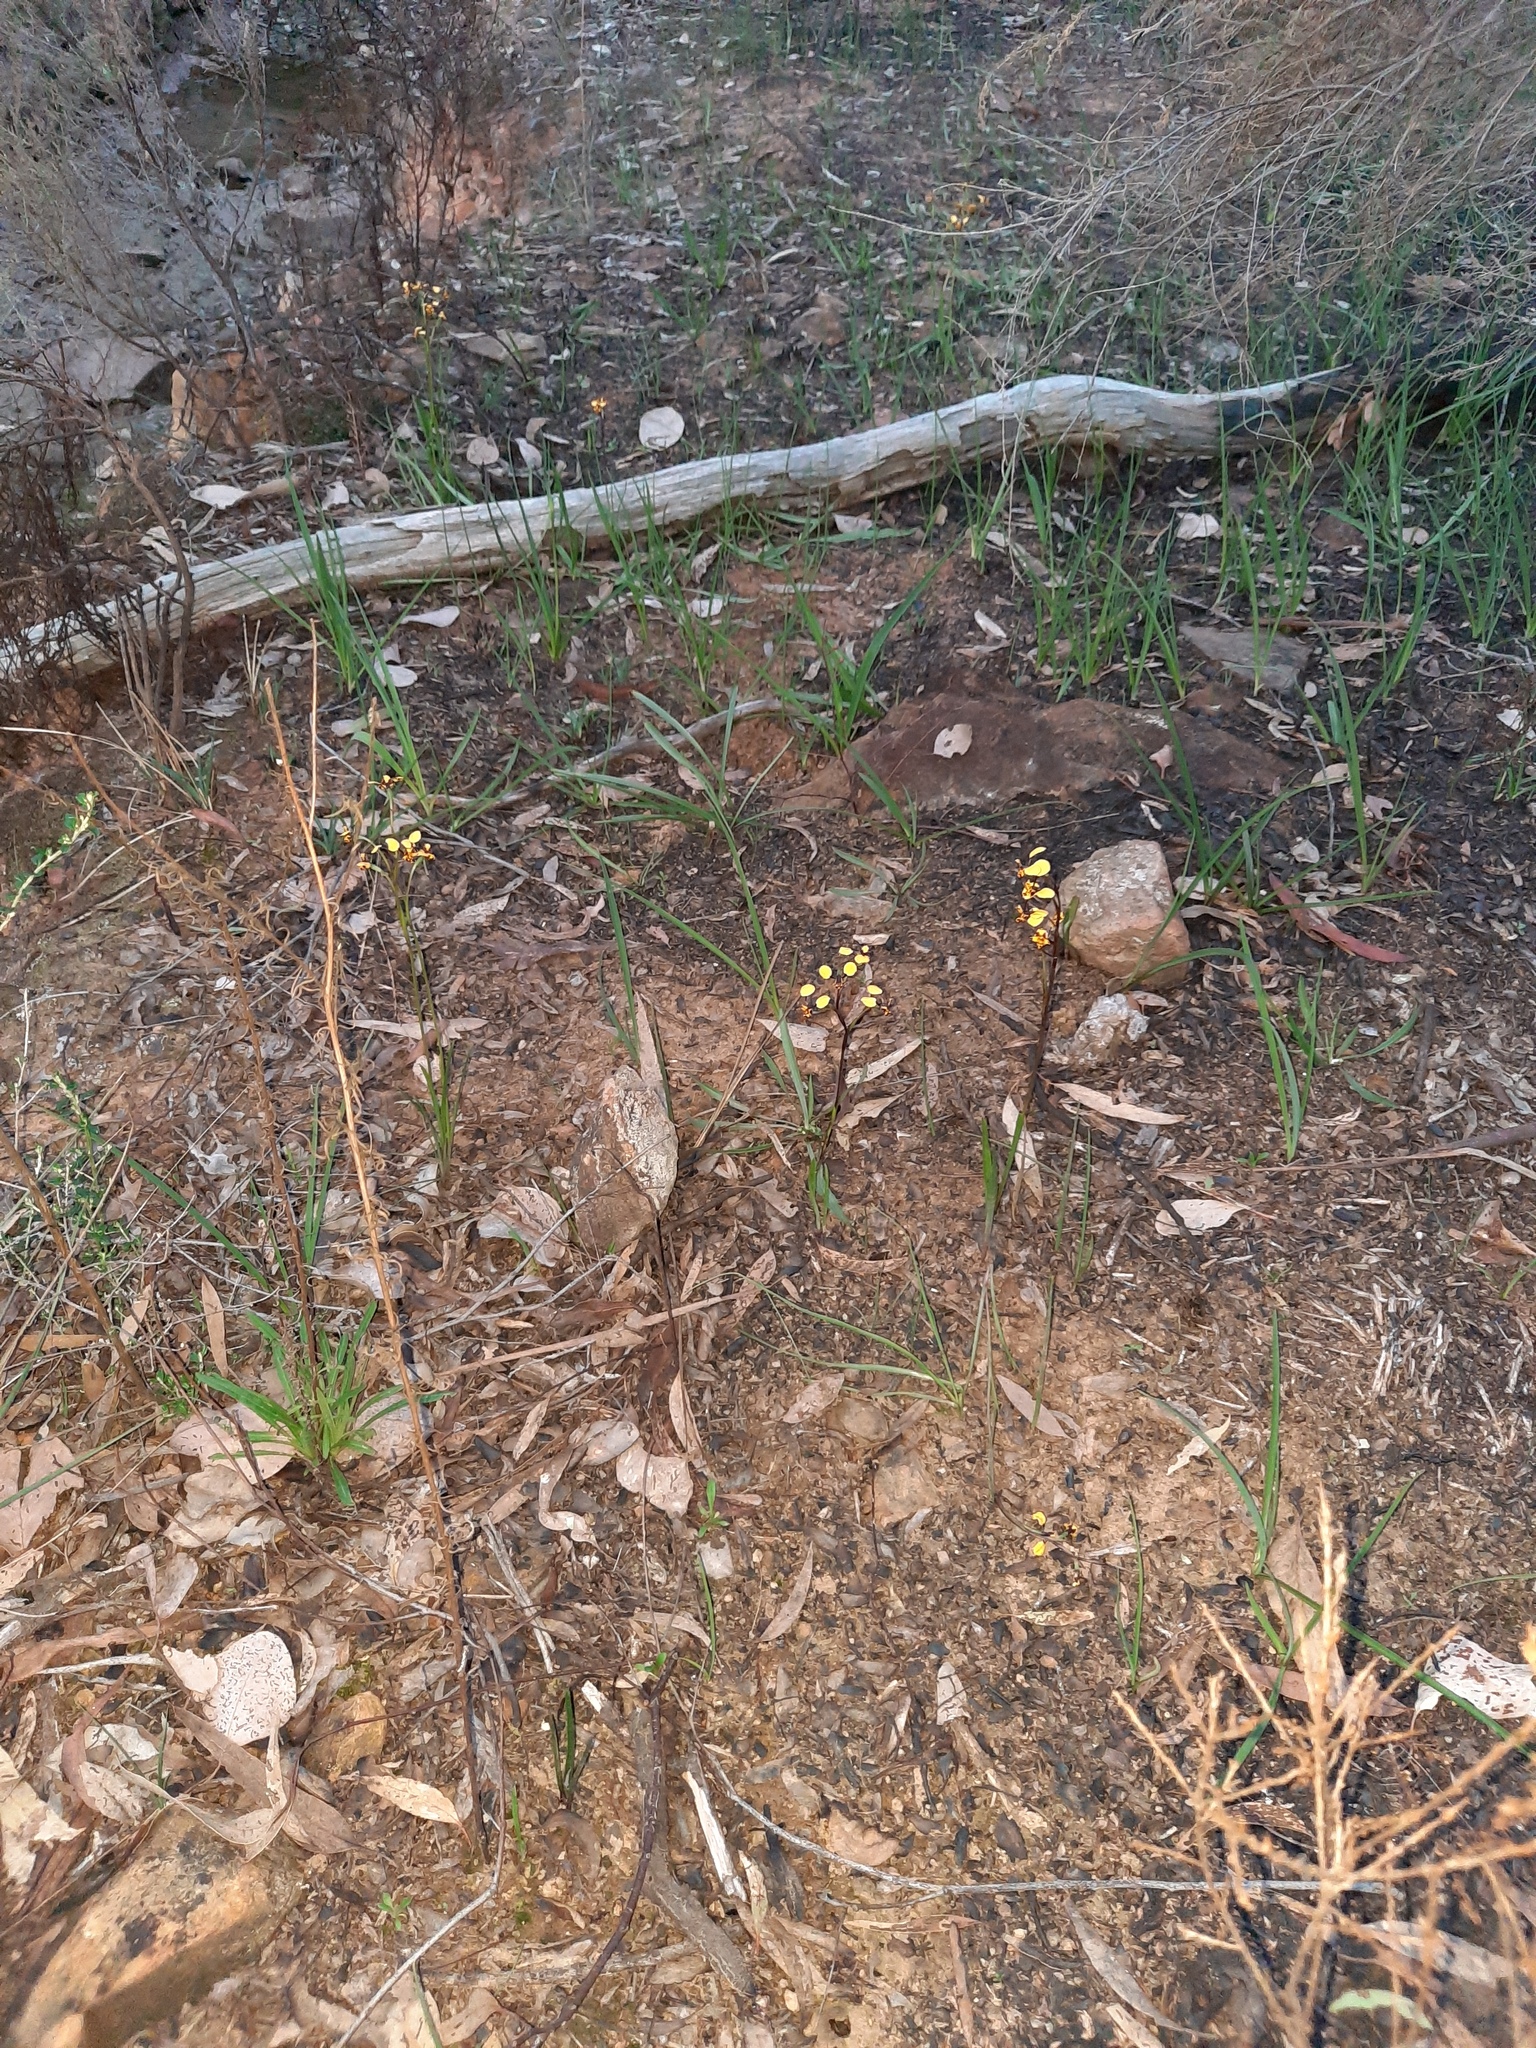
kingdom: Plantae
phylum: Tracheophyta
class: Liliopsida
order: Asparagales
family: Orchidaceae
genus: Diuris
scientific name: Diuris pardina
